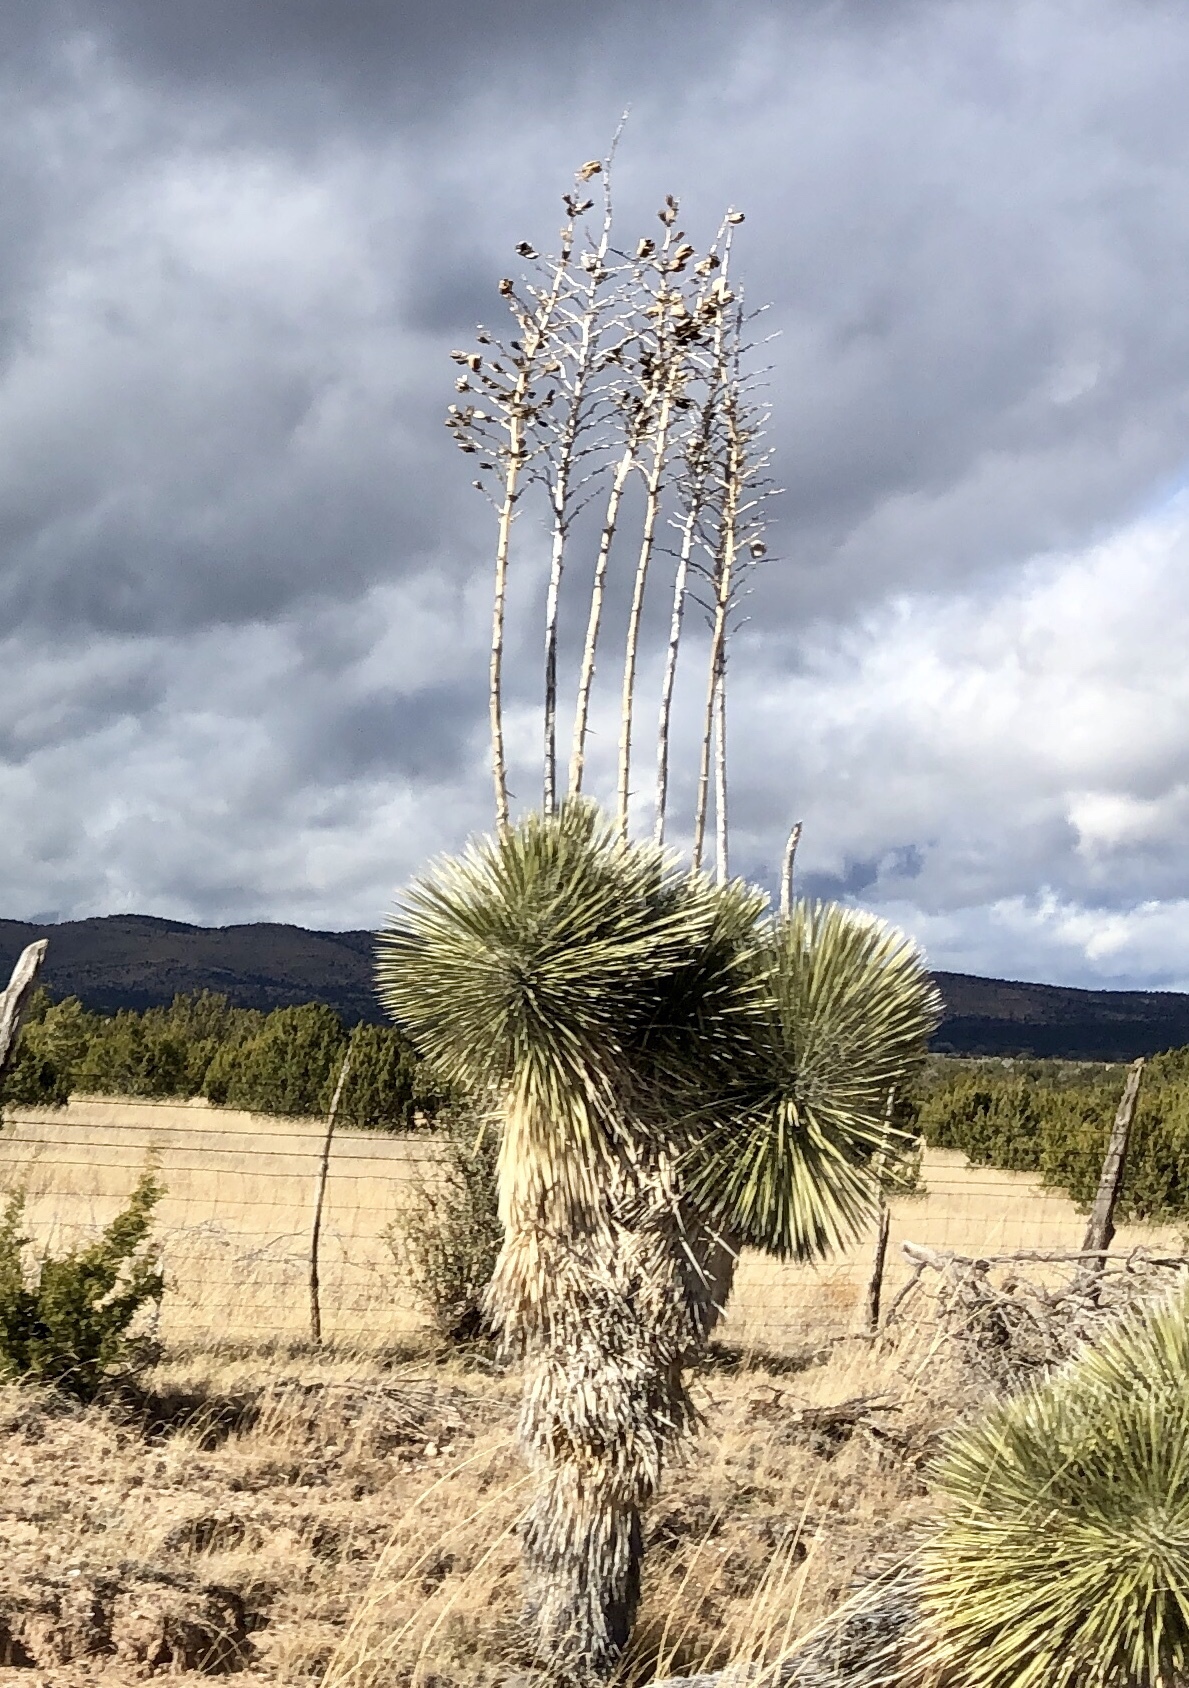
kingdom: Plantae
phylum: Tracheophyta
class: Liliopsida
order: Asparagales
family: Asparagaceae
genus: Yucca
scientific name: Yucca elata
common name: Palmella
